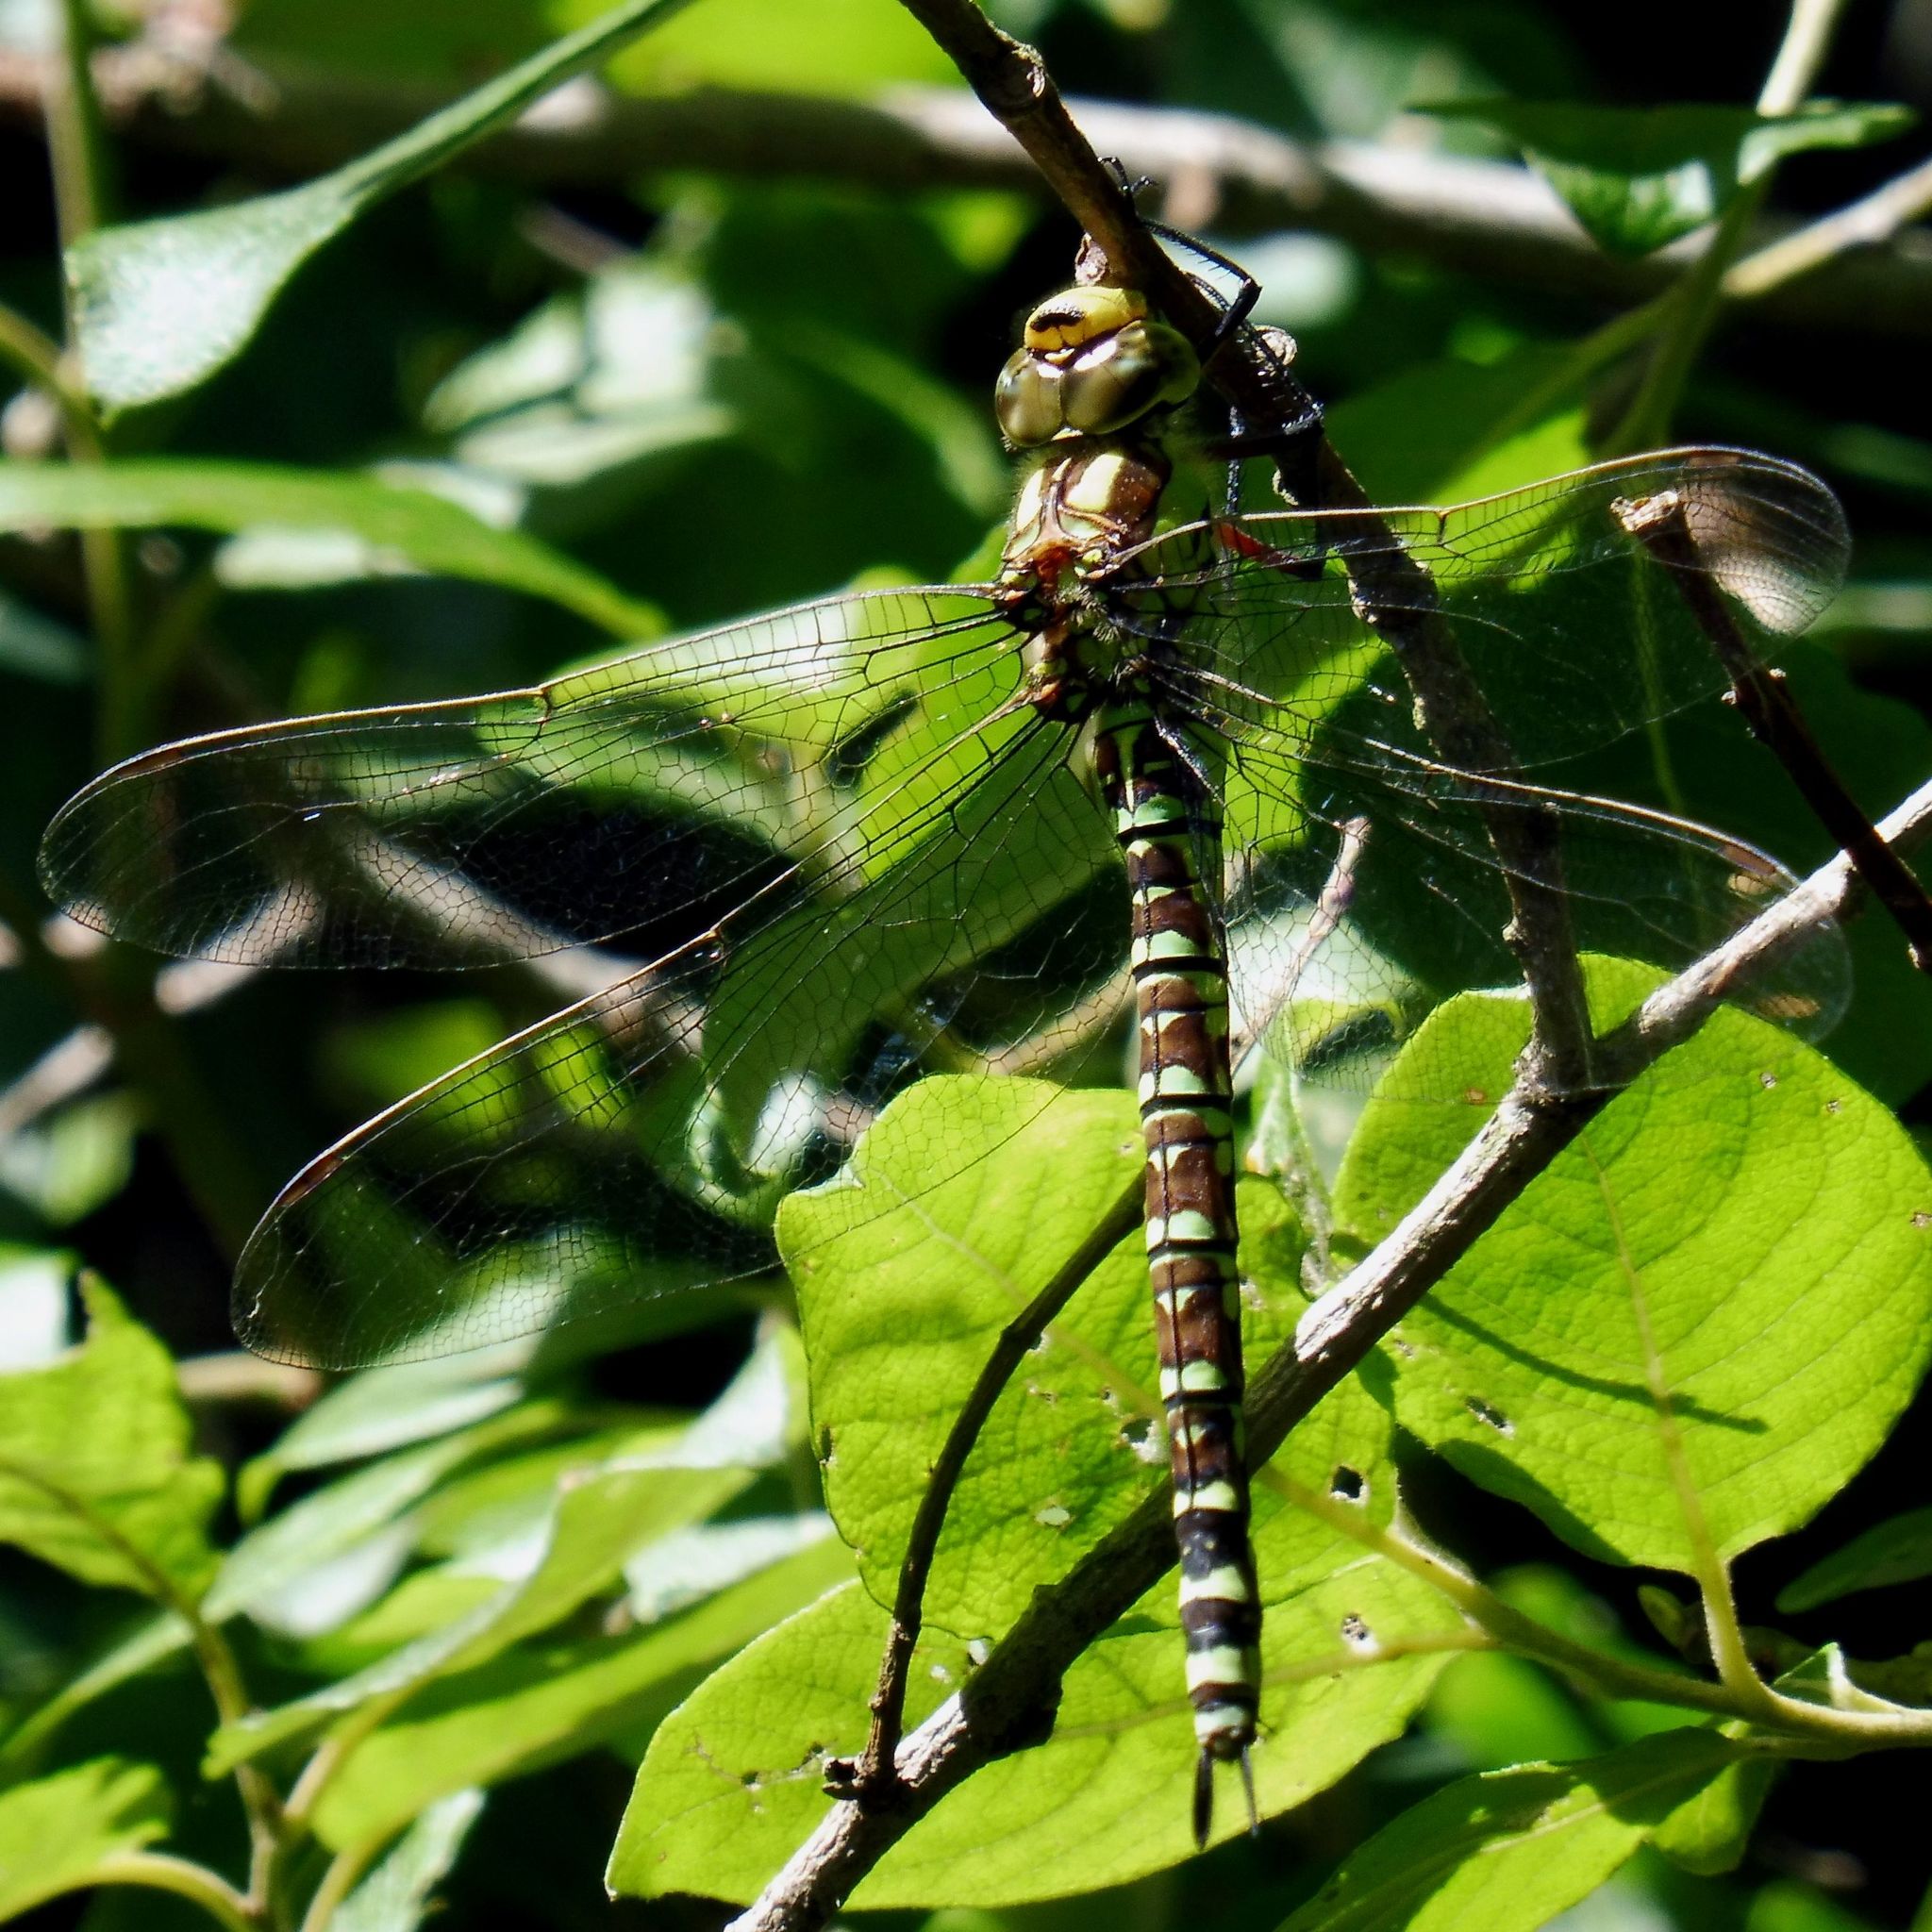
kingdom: Animalia
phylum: Arthropoda
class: Insecta
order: Odonata
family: Aeshnidae
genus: Aeshna
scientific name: Aeshna cyanea
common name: Southern hawker
